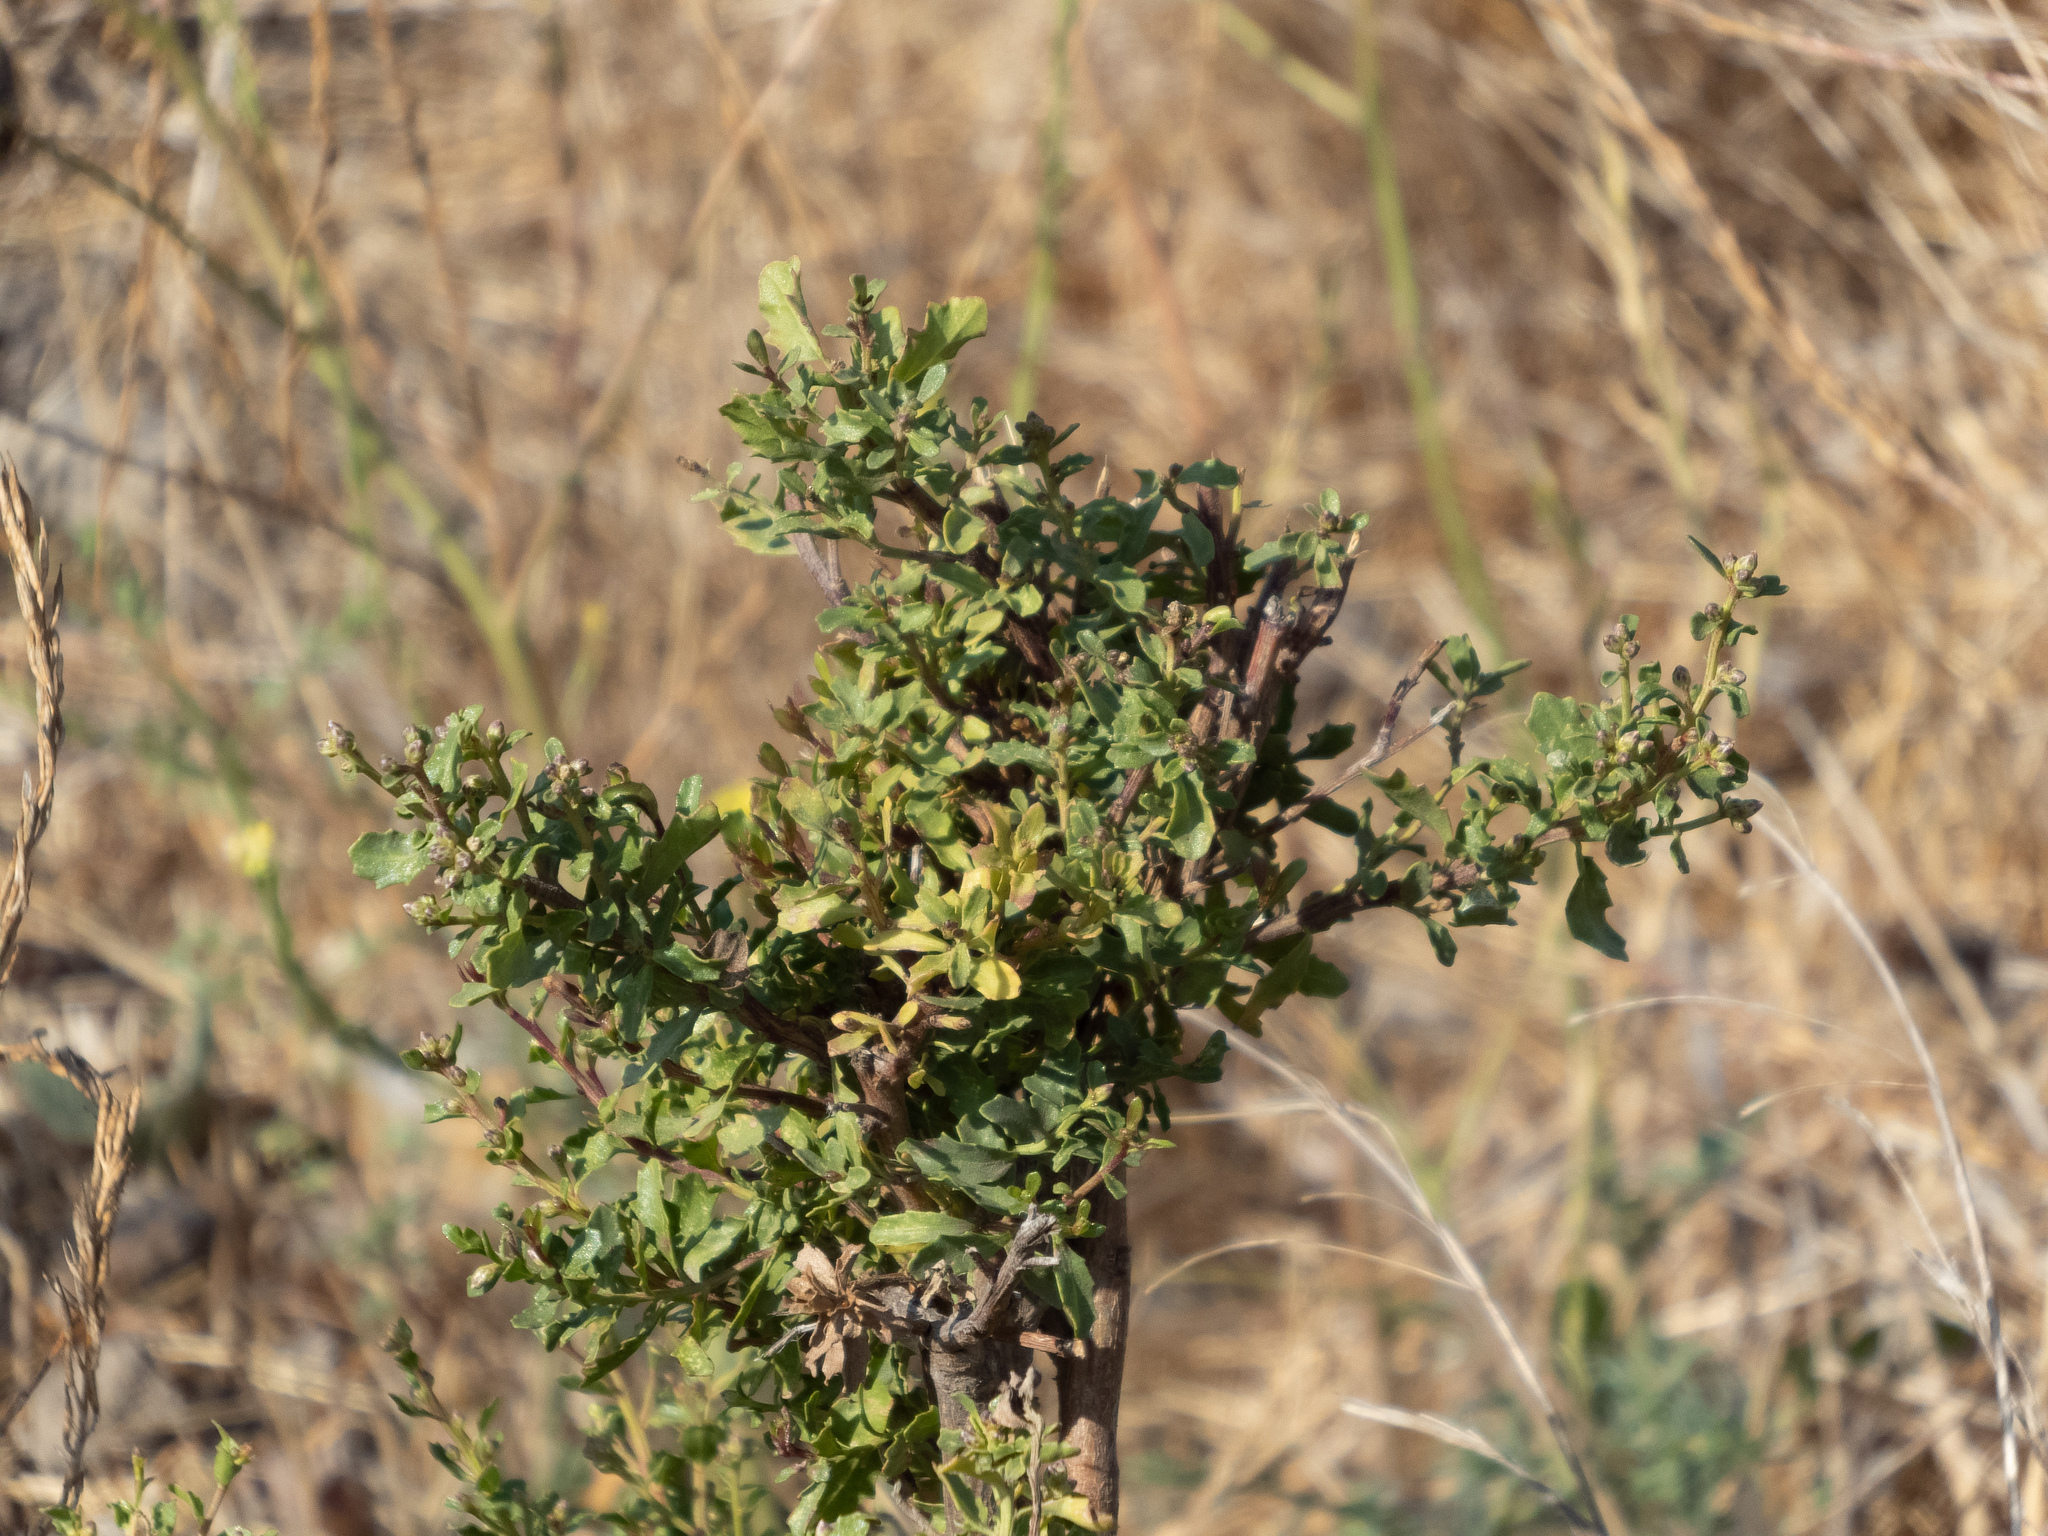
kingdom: Plantae
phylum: Tracheophyta
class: Magnoliopsida
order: Asterales
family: Asteraceae
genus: Baccharis
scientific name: Baccharis pilularis
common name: Coyotebrush
